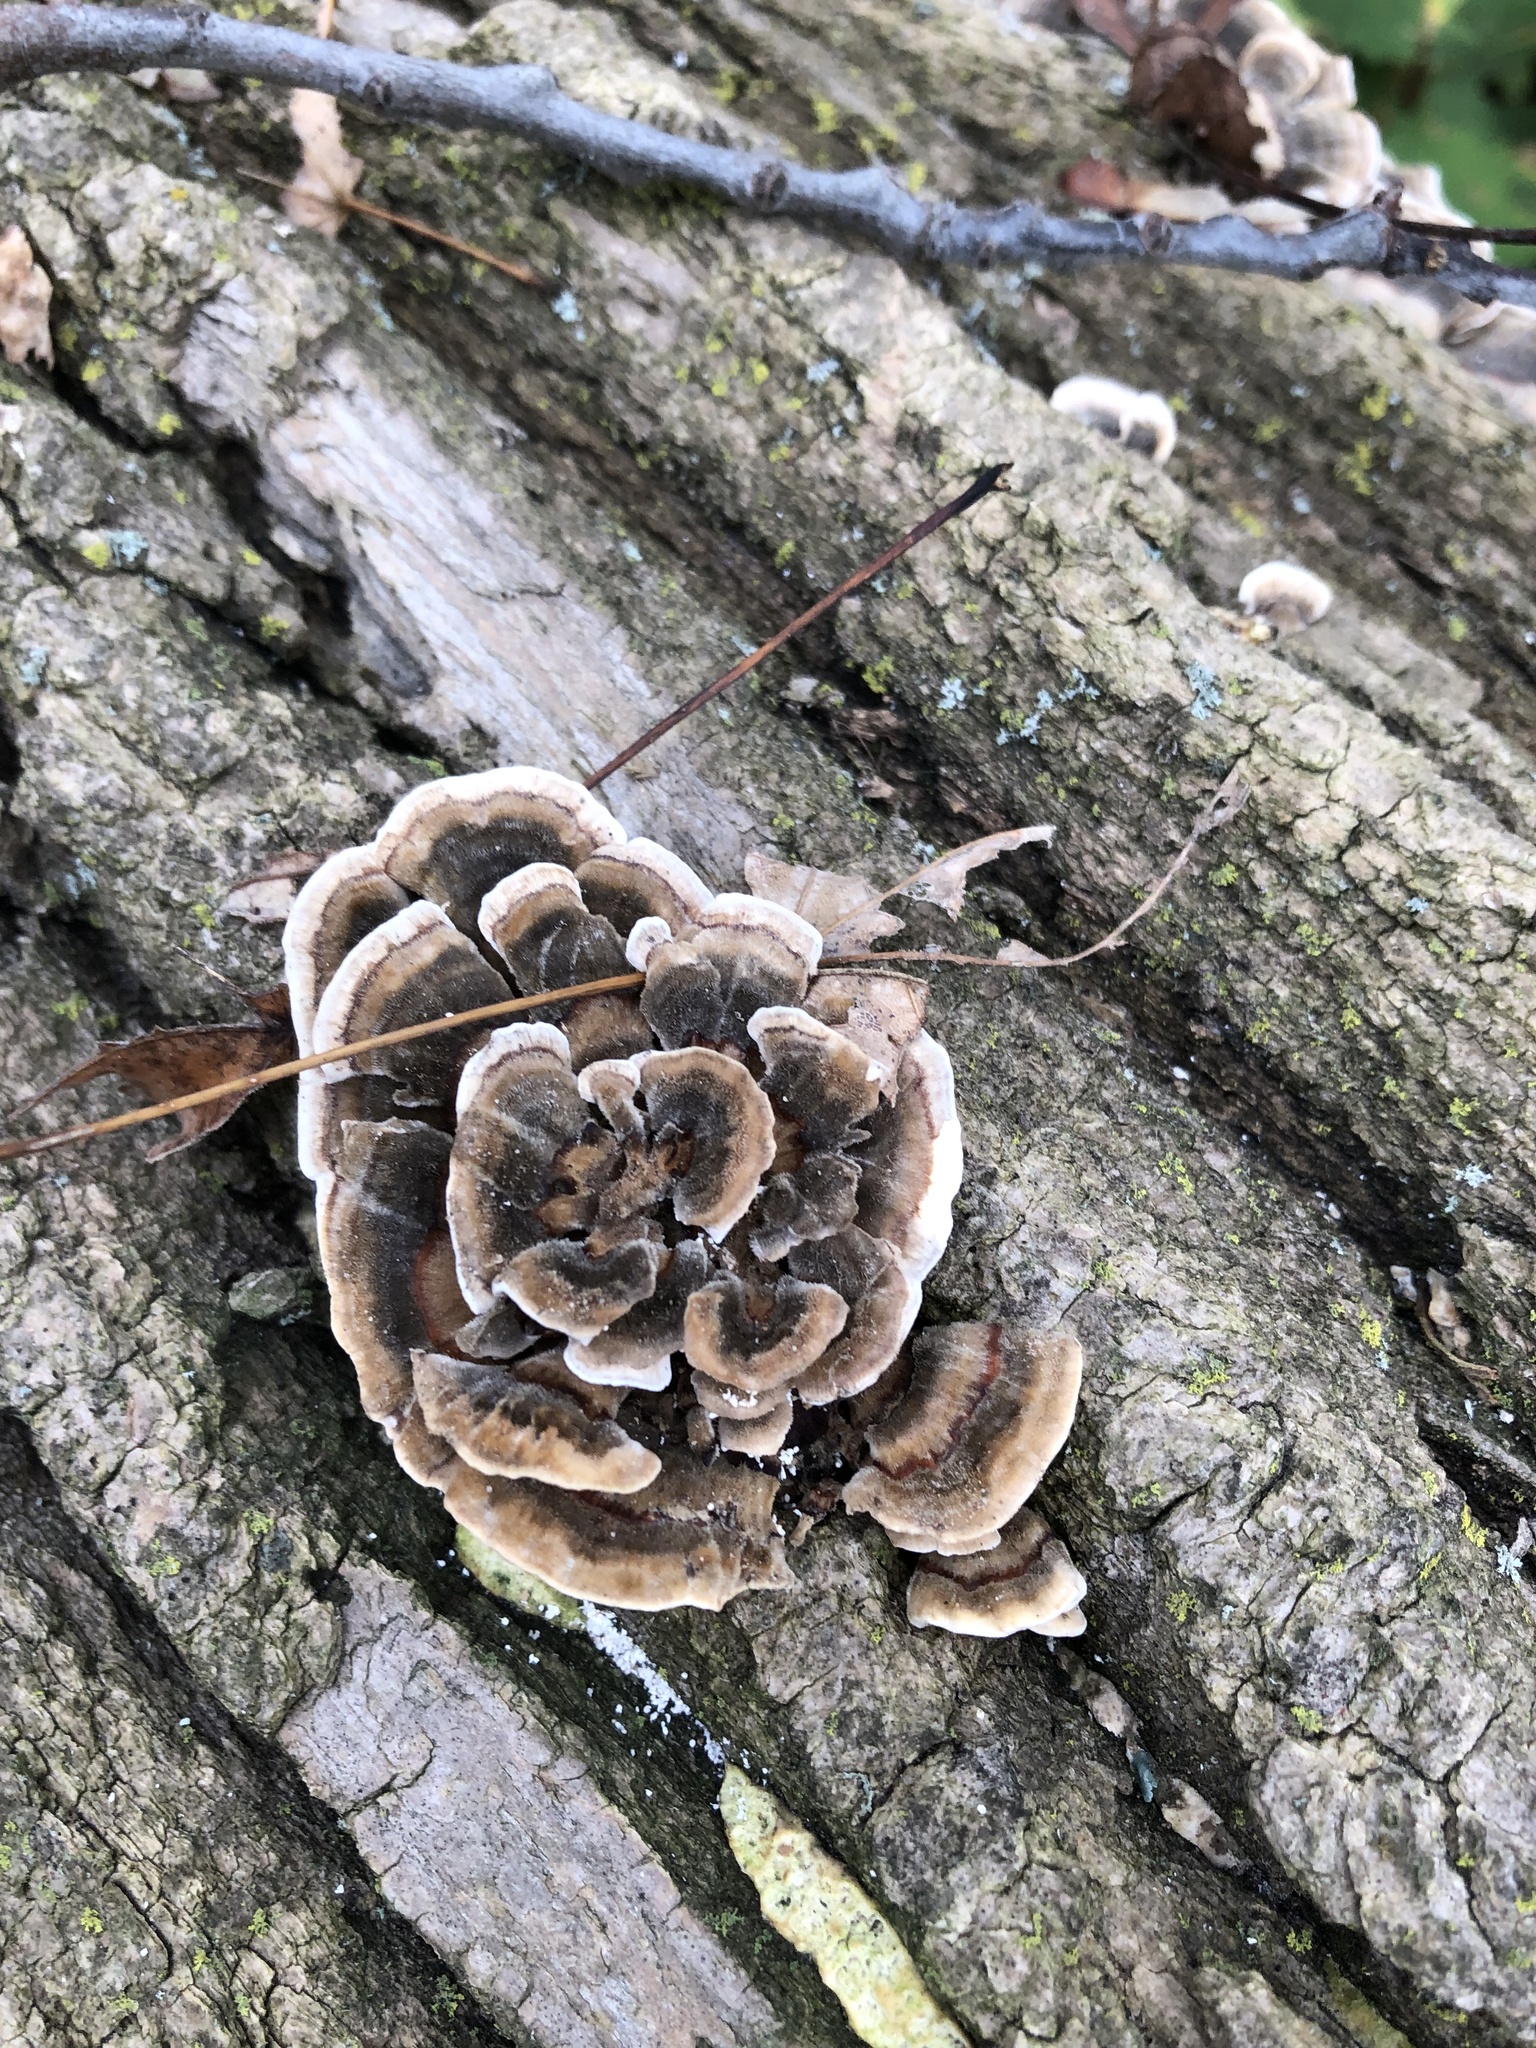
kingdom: Fungi
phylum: Basidiomycota
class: Agaricomycetes
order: Polyporales
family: Polyporaceae
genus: Trametes
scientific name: Trametes versicolor
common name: Turkeytail
